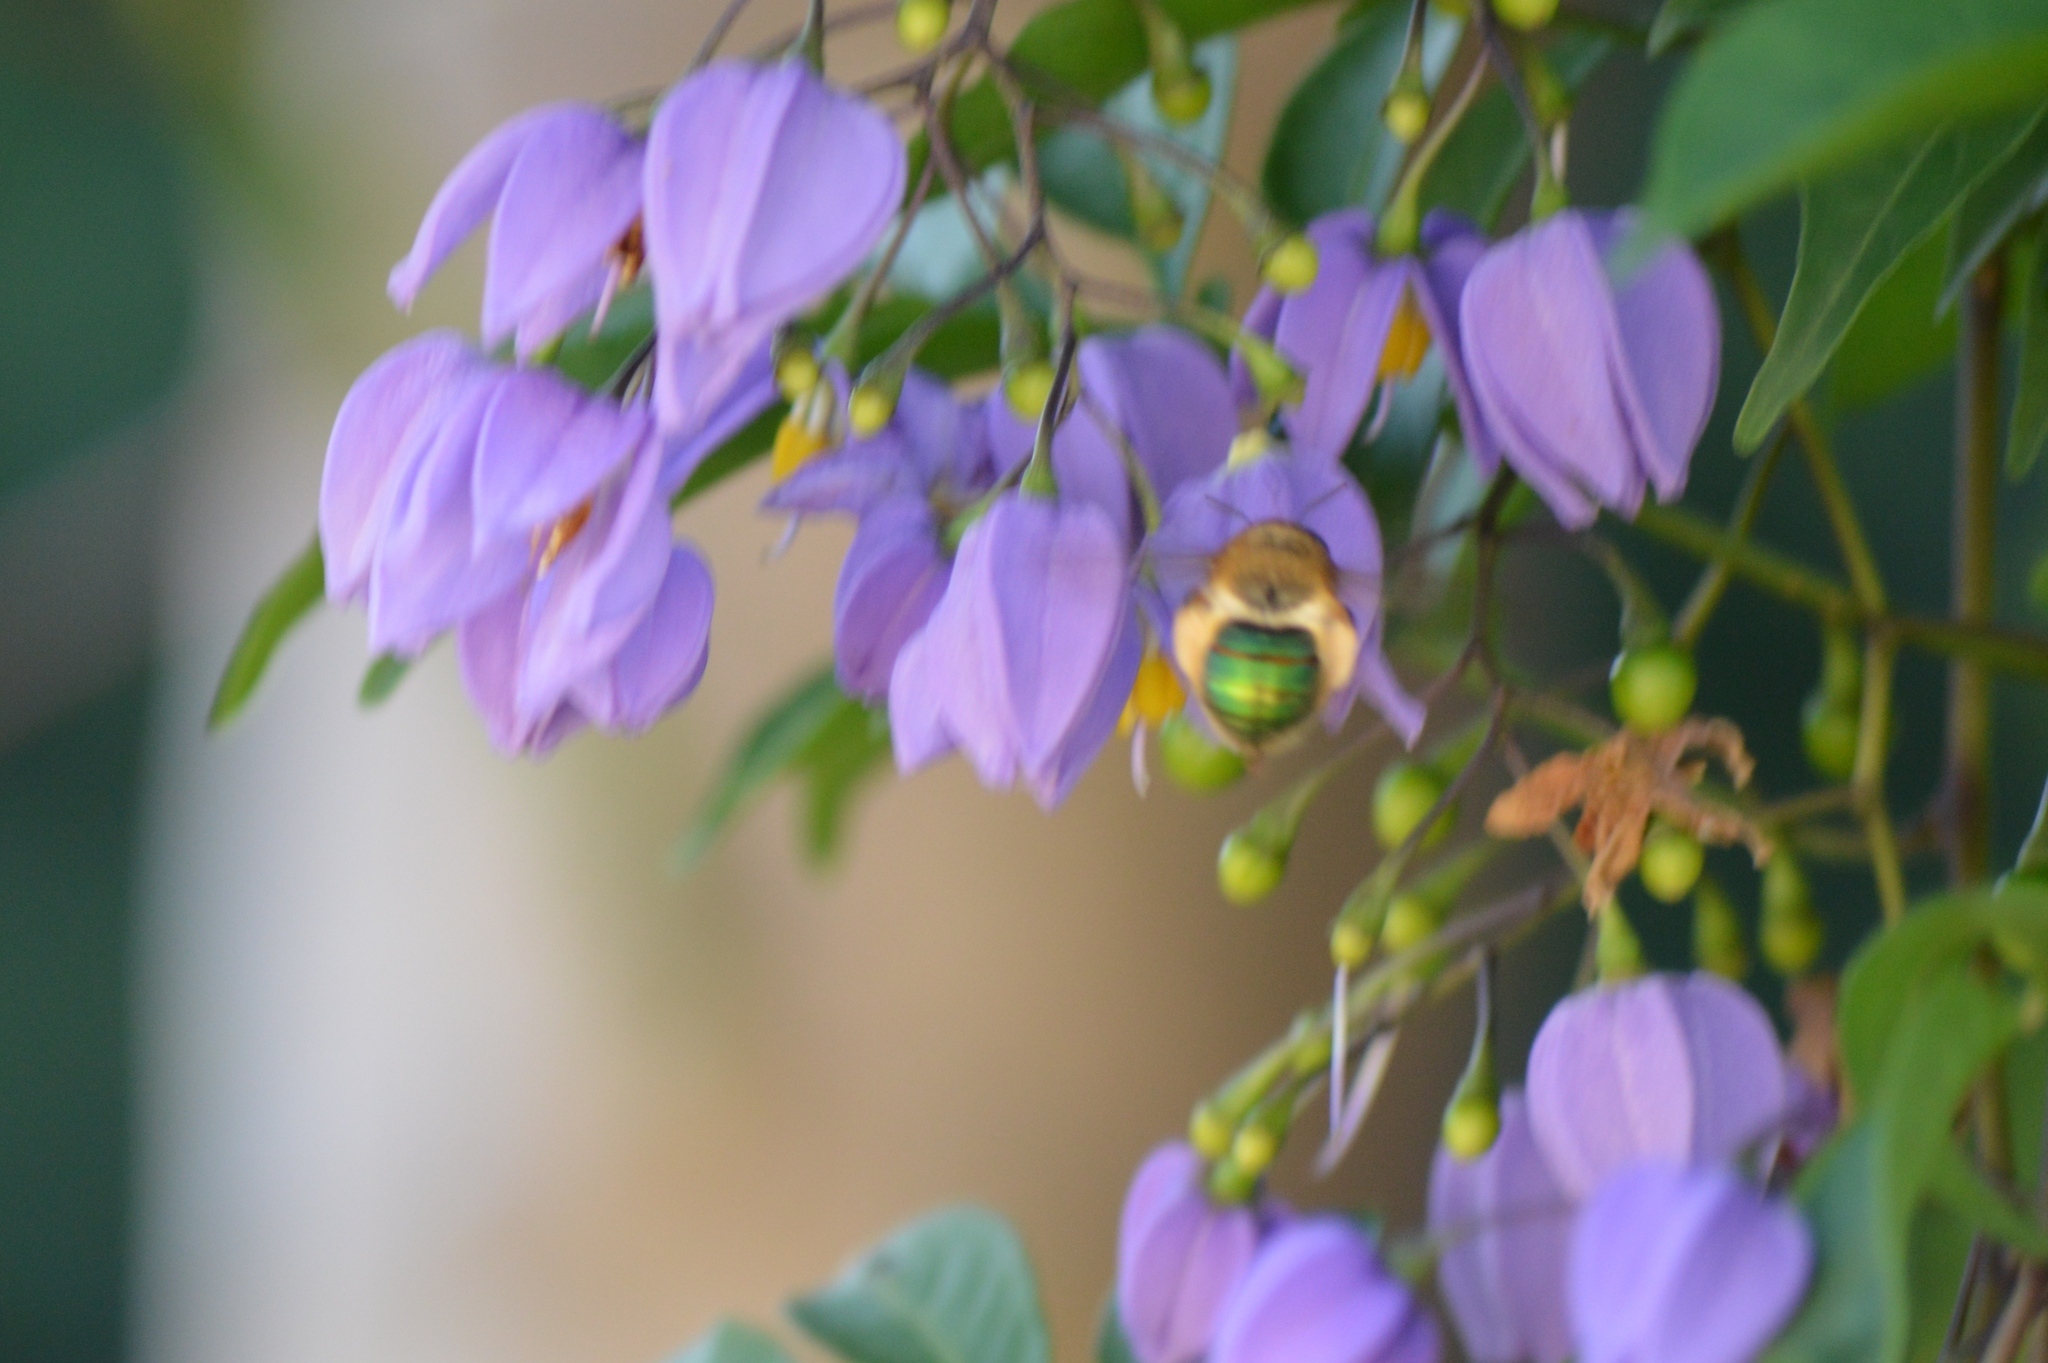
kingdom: Animalia
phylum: Arthropoda
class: Insecta
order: Hymenoptera
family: Andrenidae
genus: Oxaea
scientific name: Oxaea flavescens
